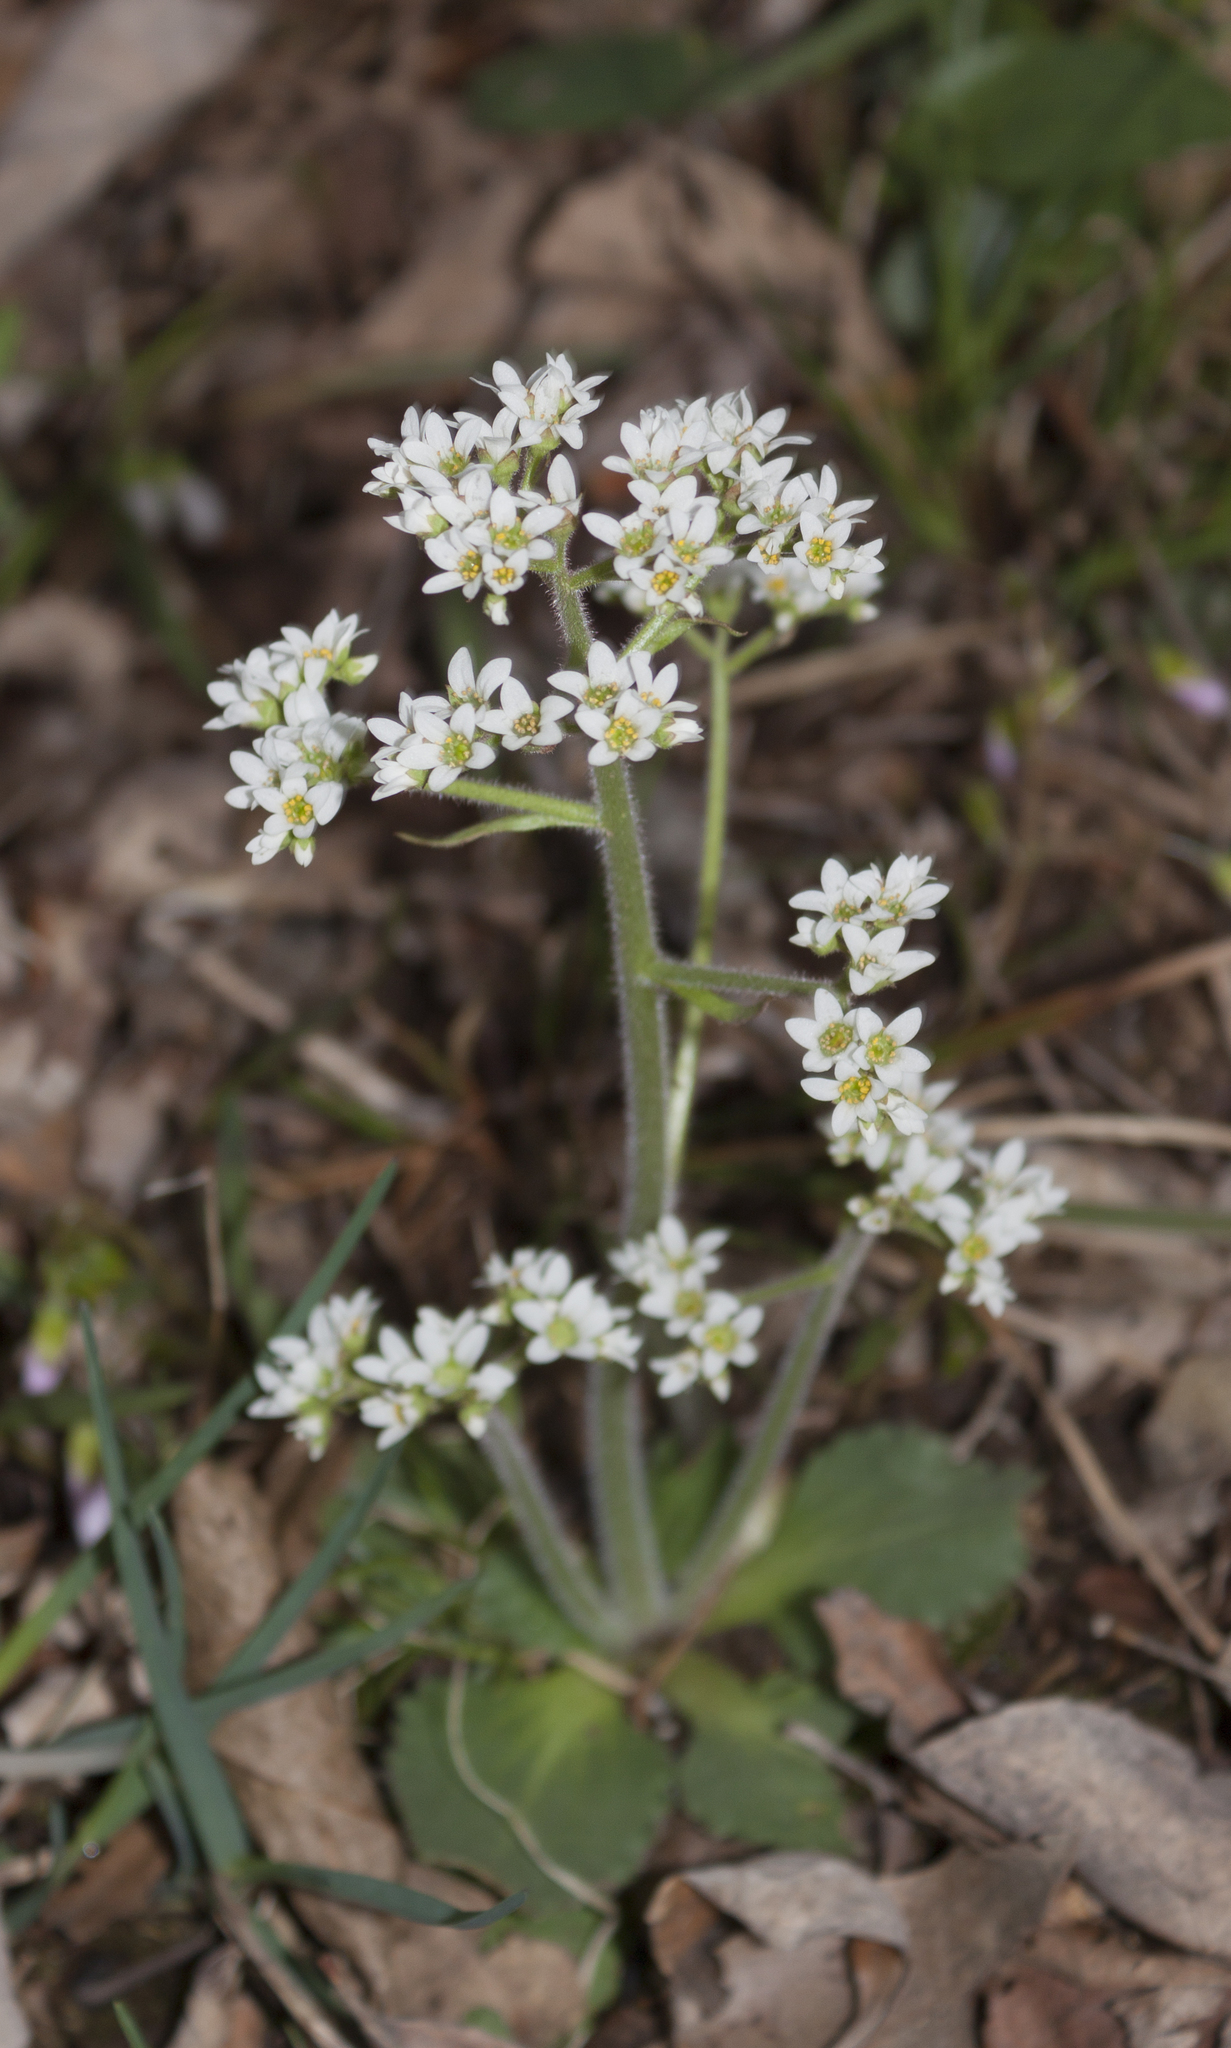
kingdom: Plantae
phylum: Tracheophyta
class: Magnoliopsida
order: Saxifragales
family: Saxifragaceae
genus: Micranthes
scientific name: Micranthes virginiensis
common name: Early saxifrage
